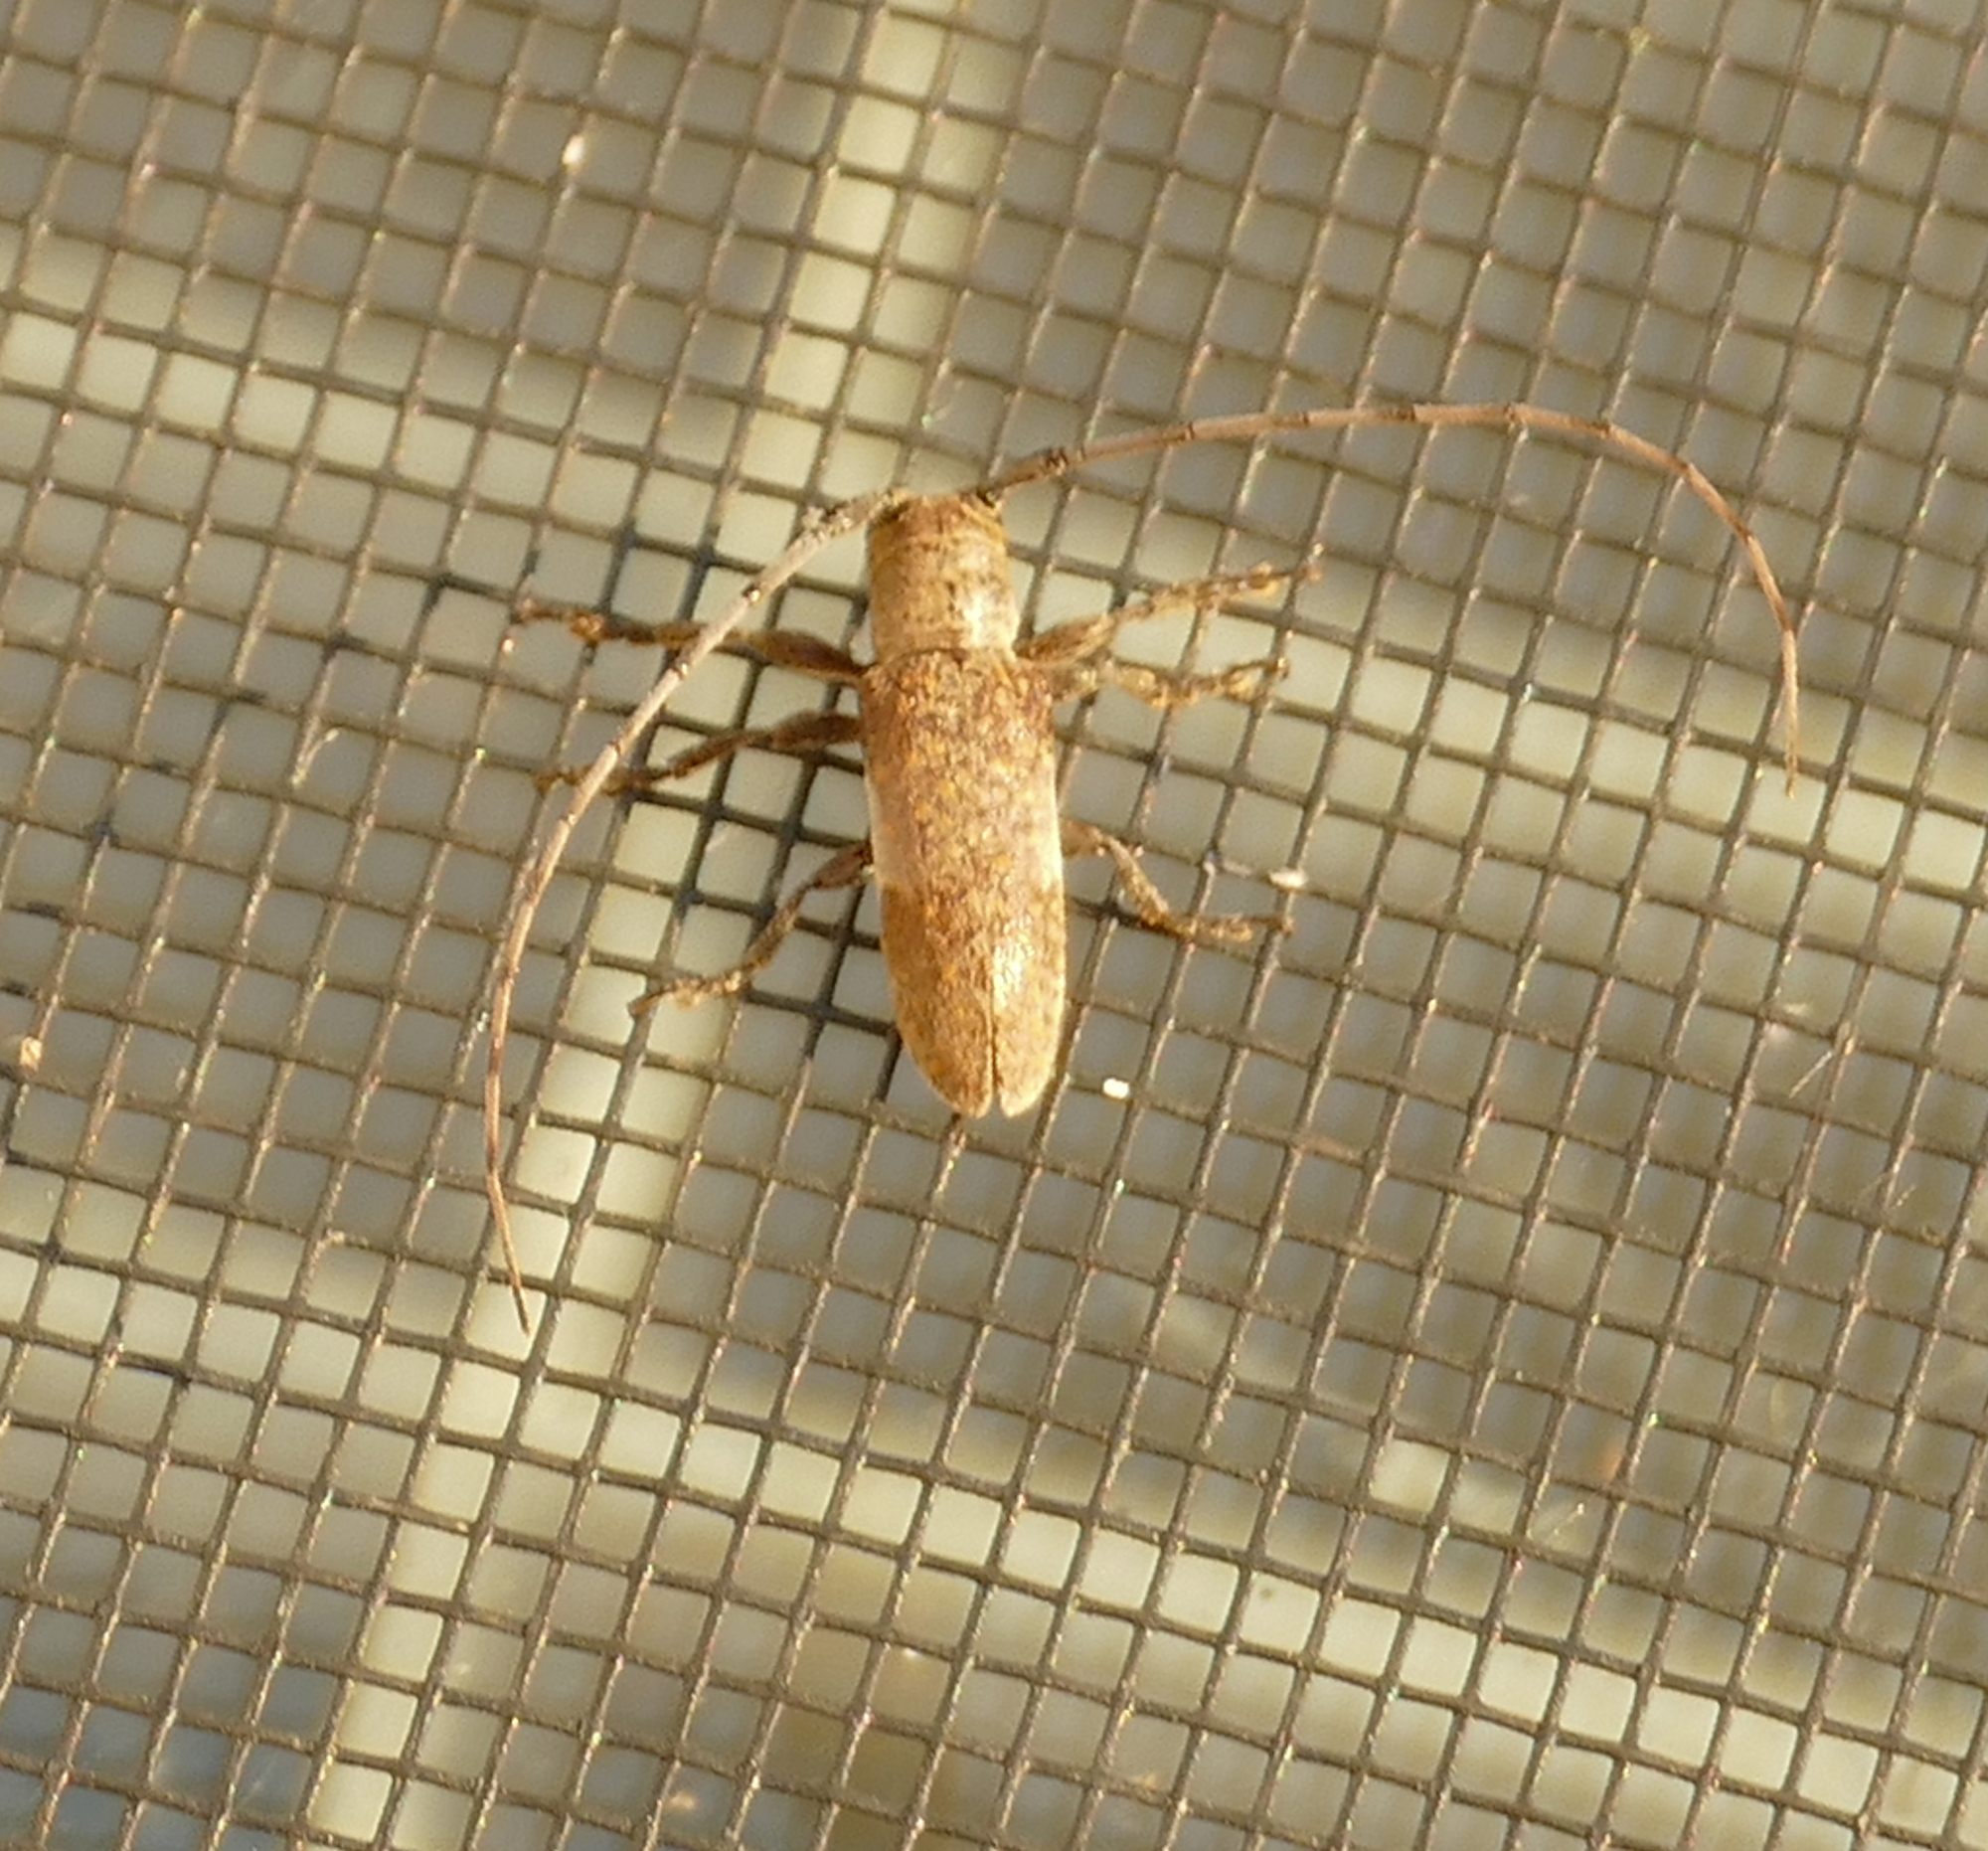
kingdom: Animalia
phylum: Arthropoda
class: Insecta
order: Coleoptera
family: Cerambycidae
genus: Oncideres
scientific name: Oncideres cingulata
